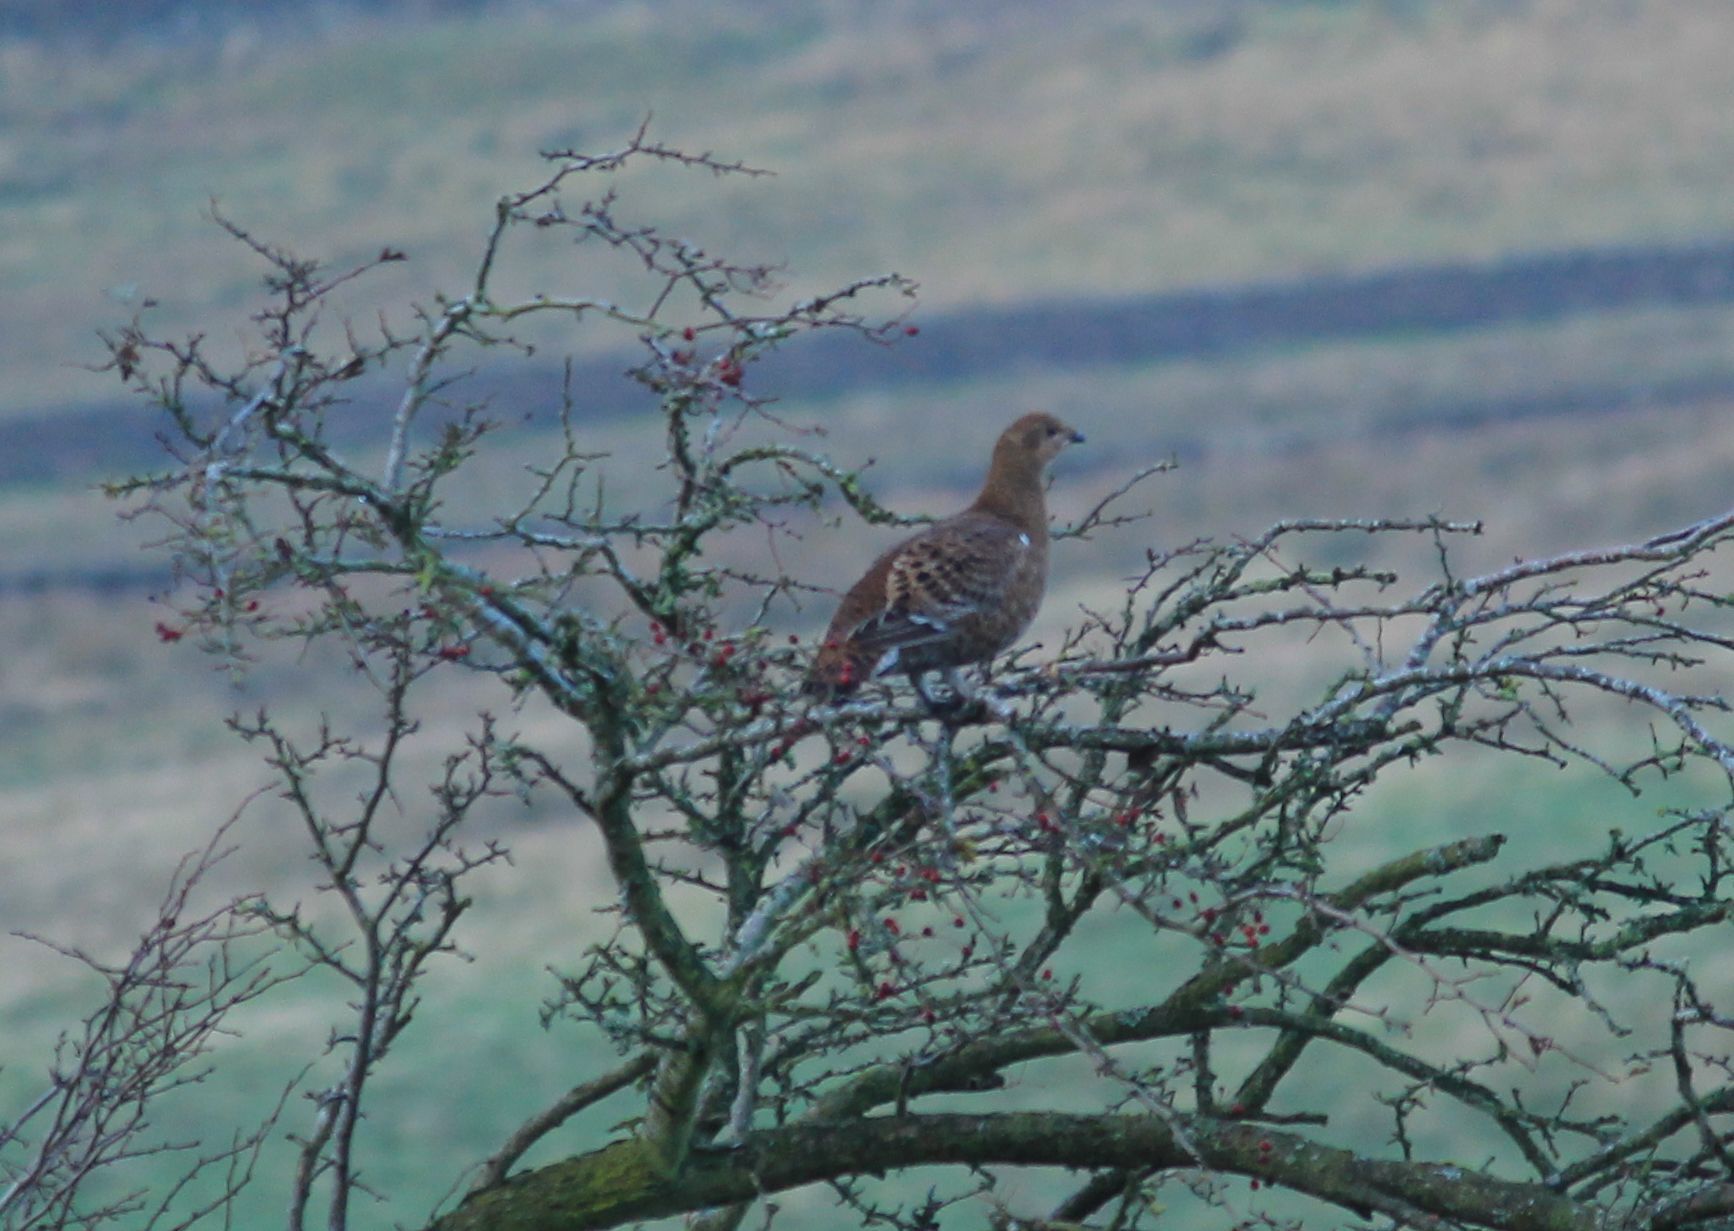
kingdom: Animalia
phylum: Chordata
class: Aves
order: Galliformes
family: Phasianidae
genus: Lyrurus
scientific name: Lyrurus tetrix
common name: Black grouse
